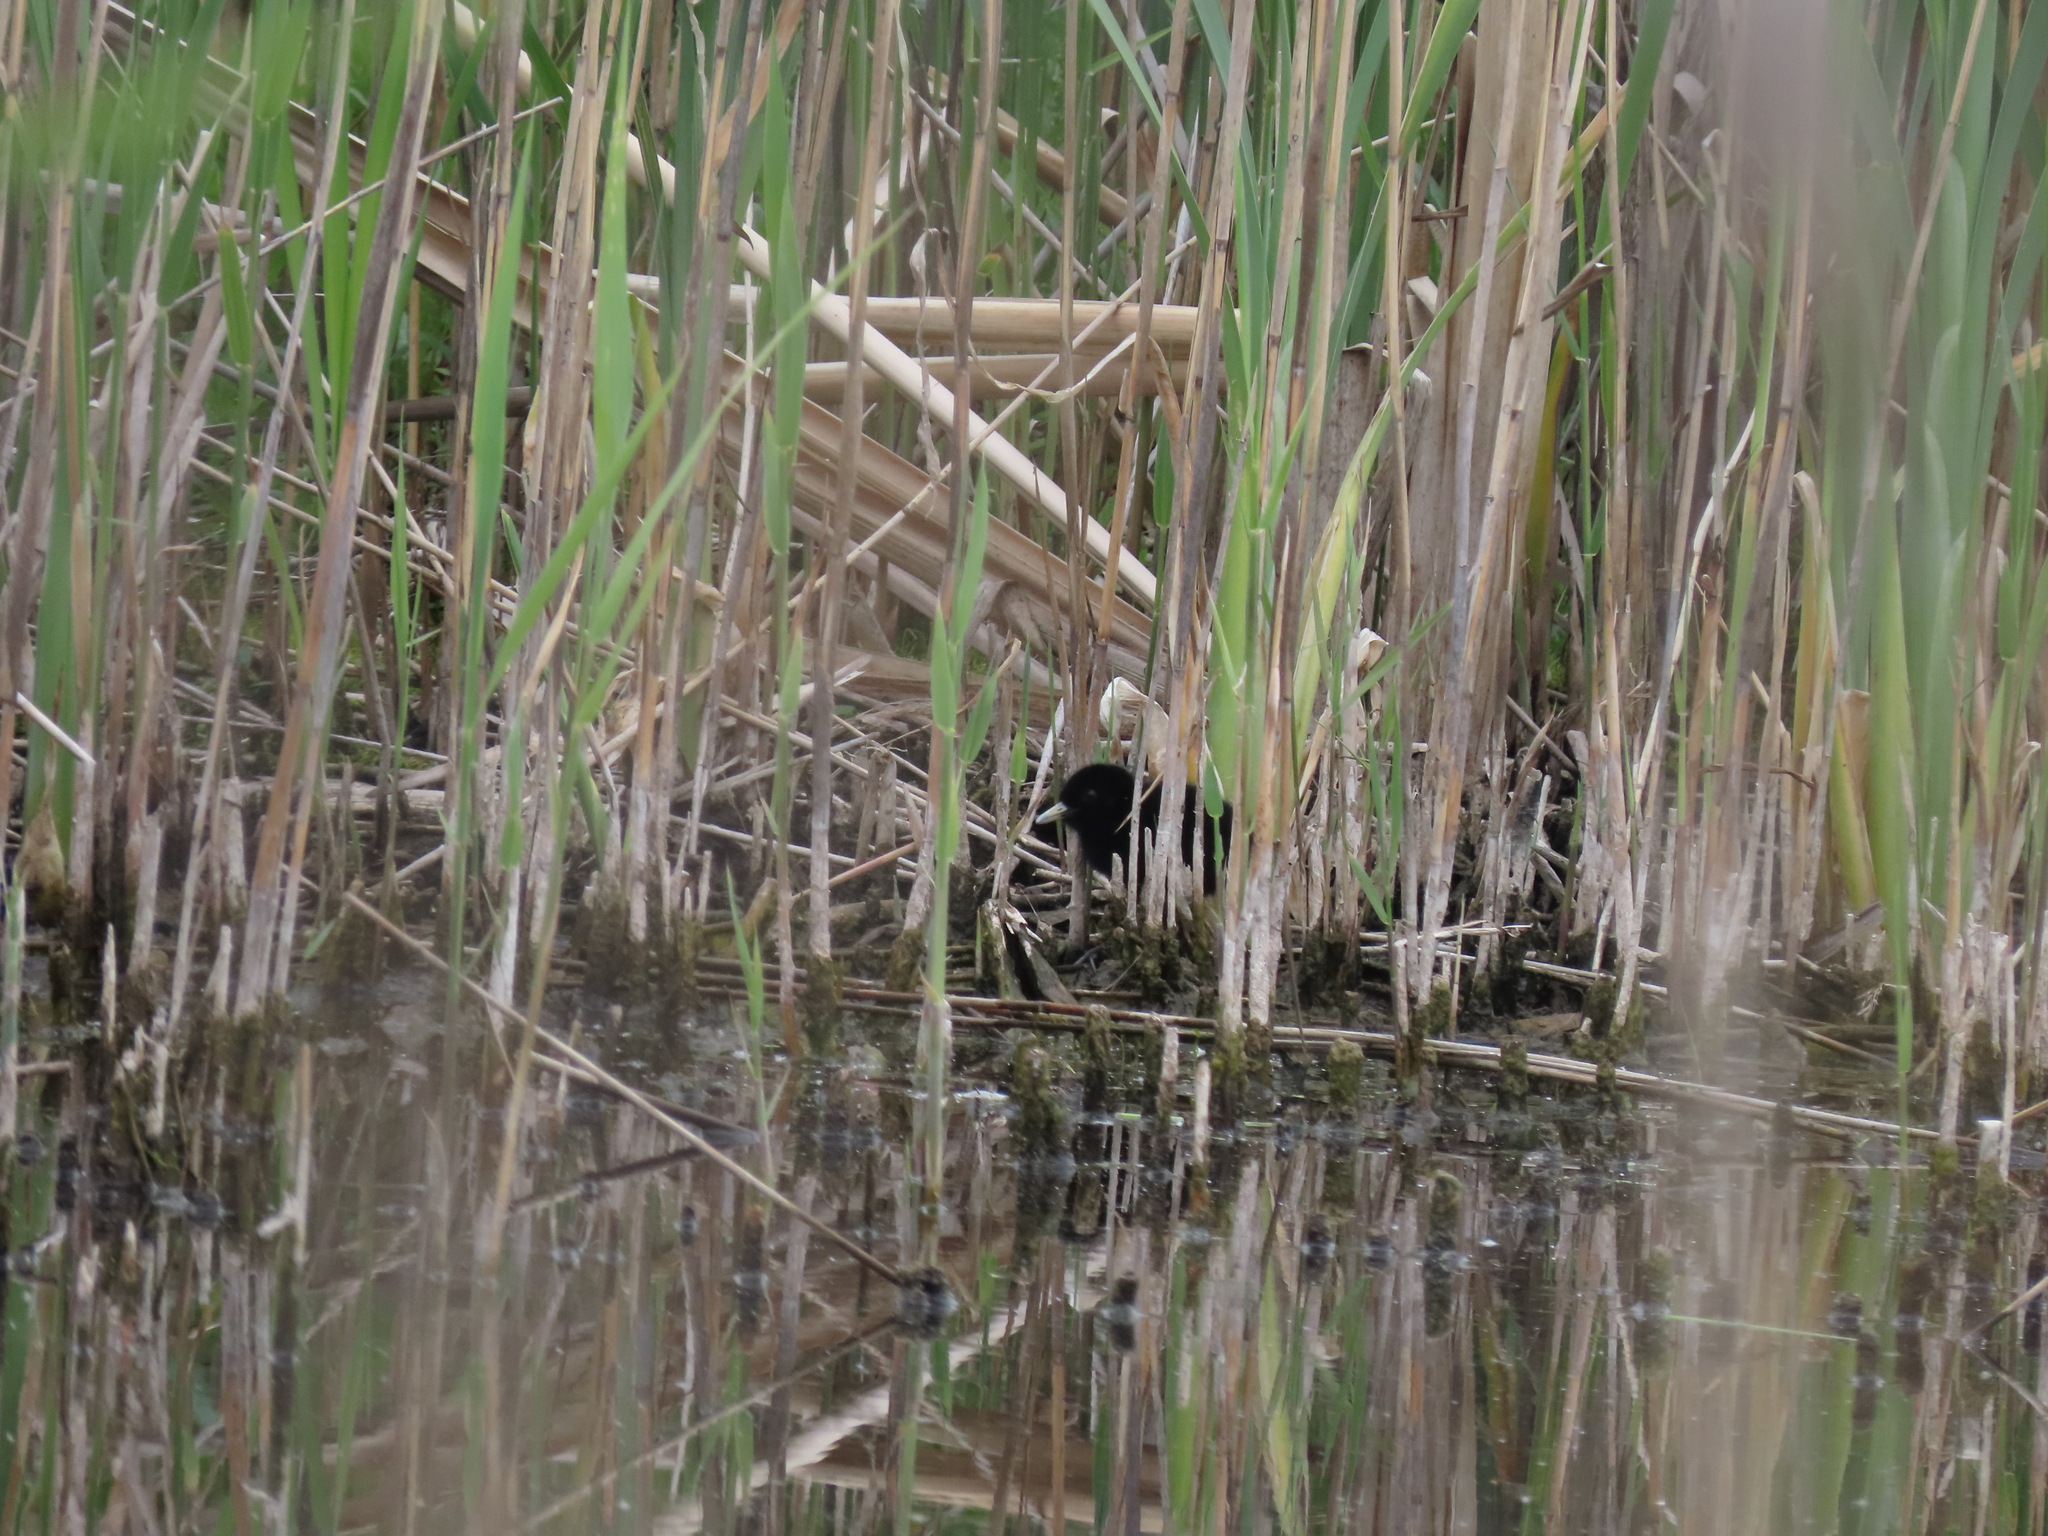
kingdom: Animalia
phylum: Chordata
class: Aves
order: Gruiformes
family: Rallidae
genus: Rallus
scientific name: Rallus aquaticus
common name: Water rail
